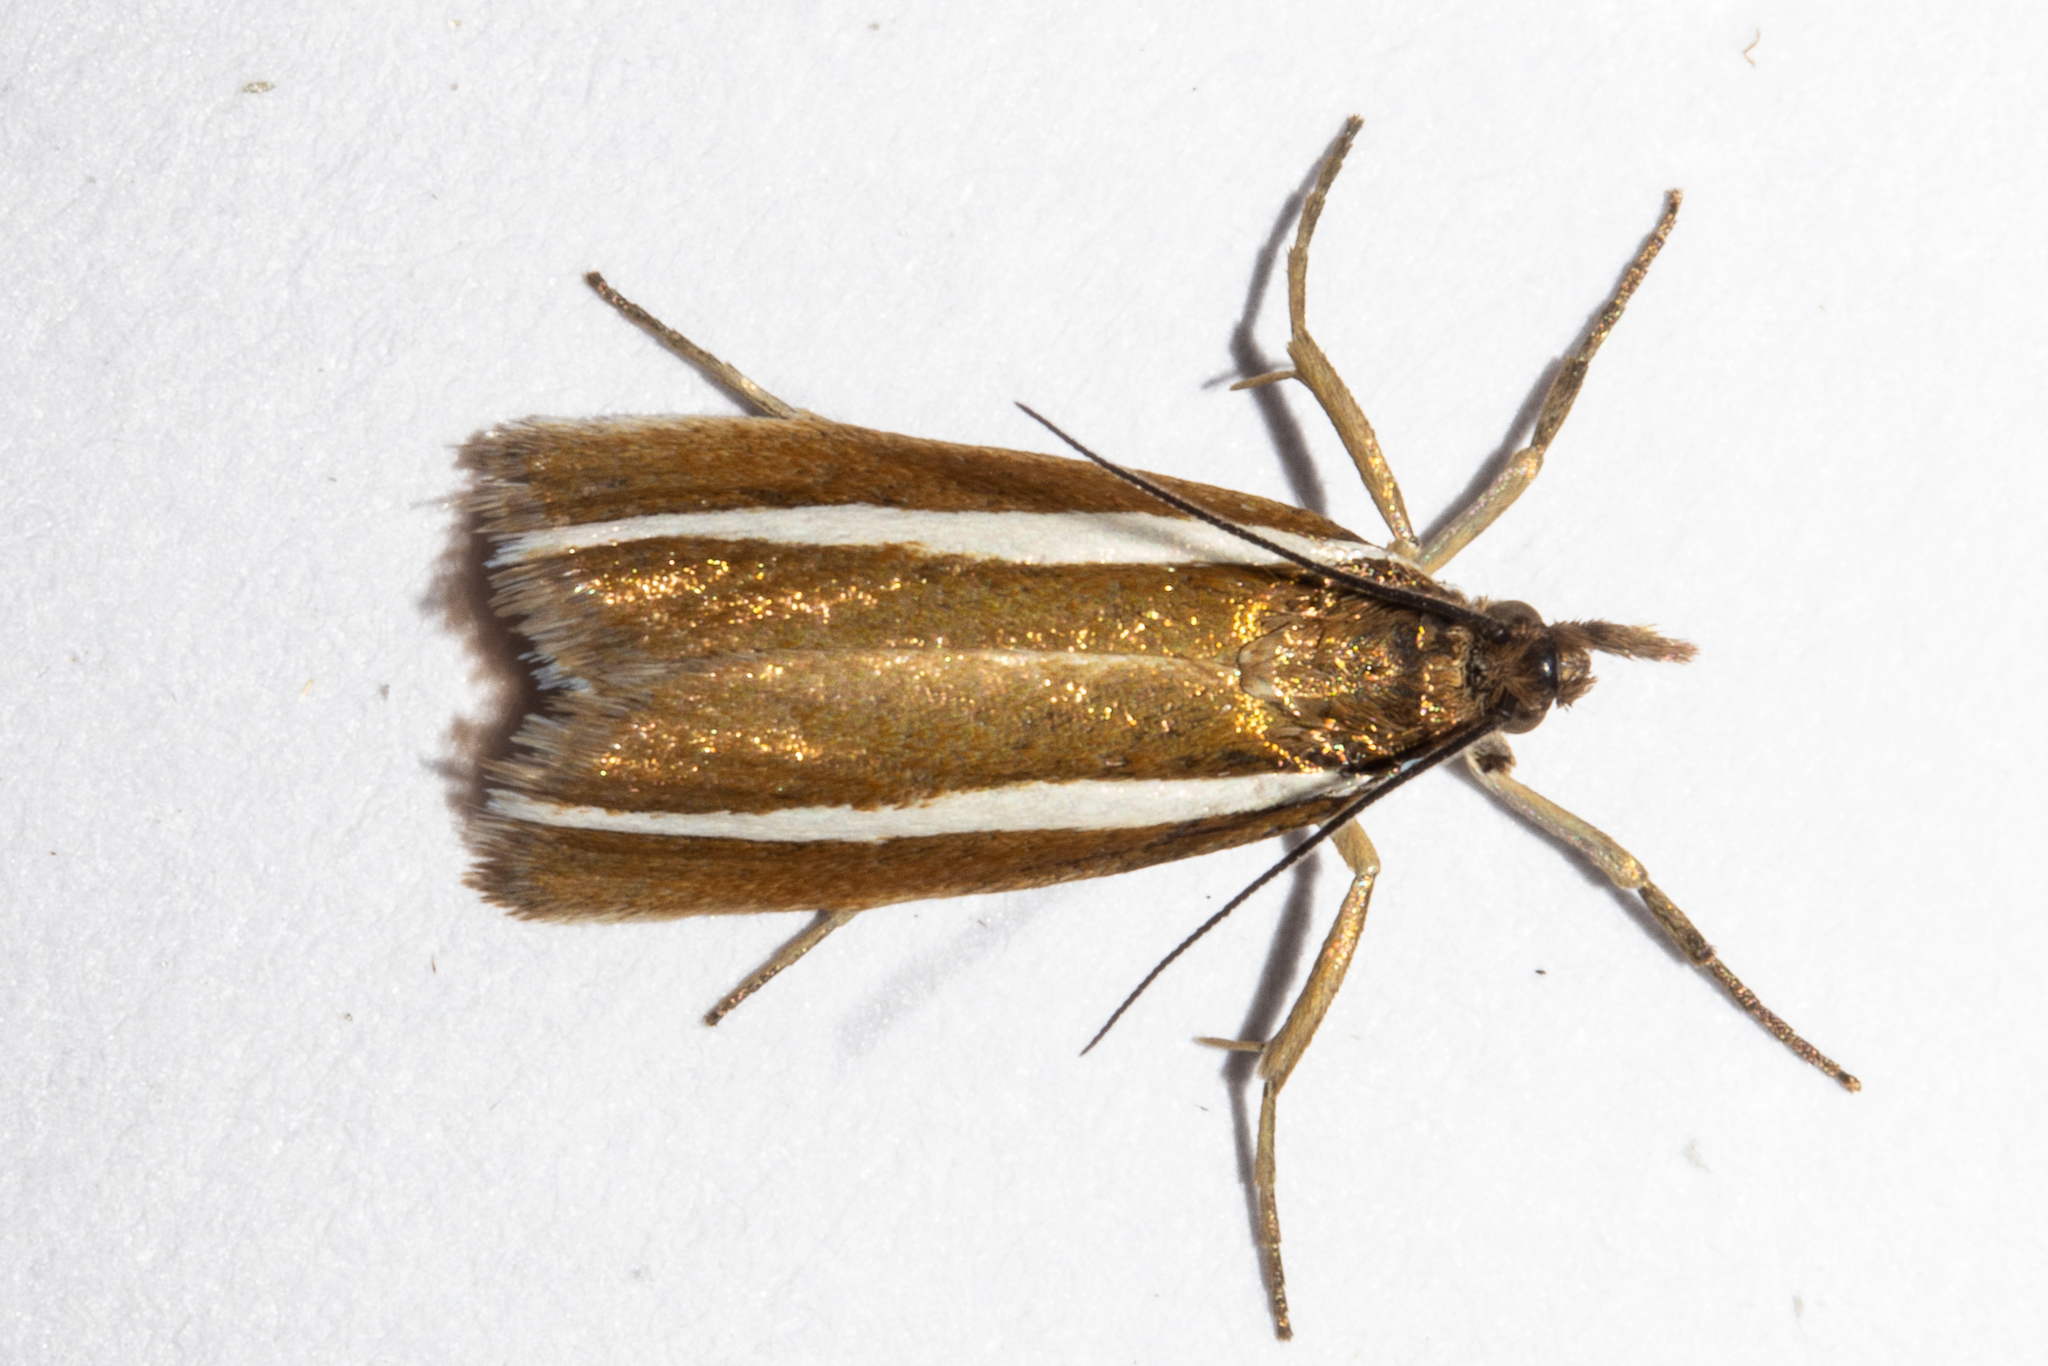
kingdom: Animalia
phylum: Arthropoda
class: Insecta
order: Lepidoptera
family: Crambidae
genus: Orocrambus
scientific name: Orocrambus aethonellus
